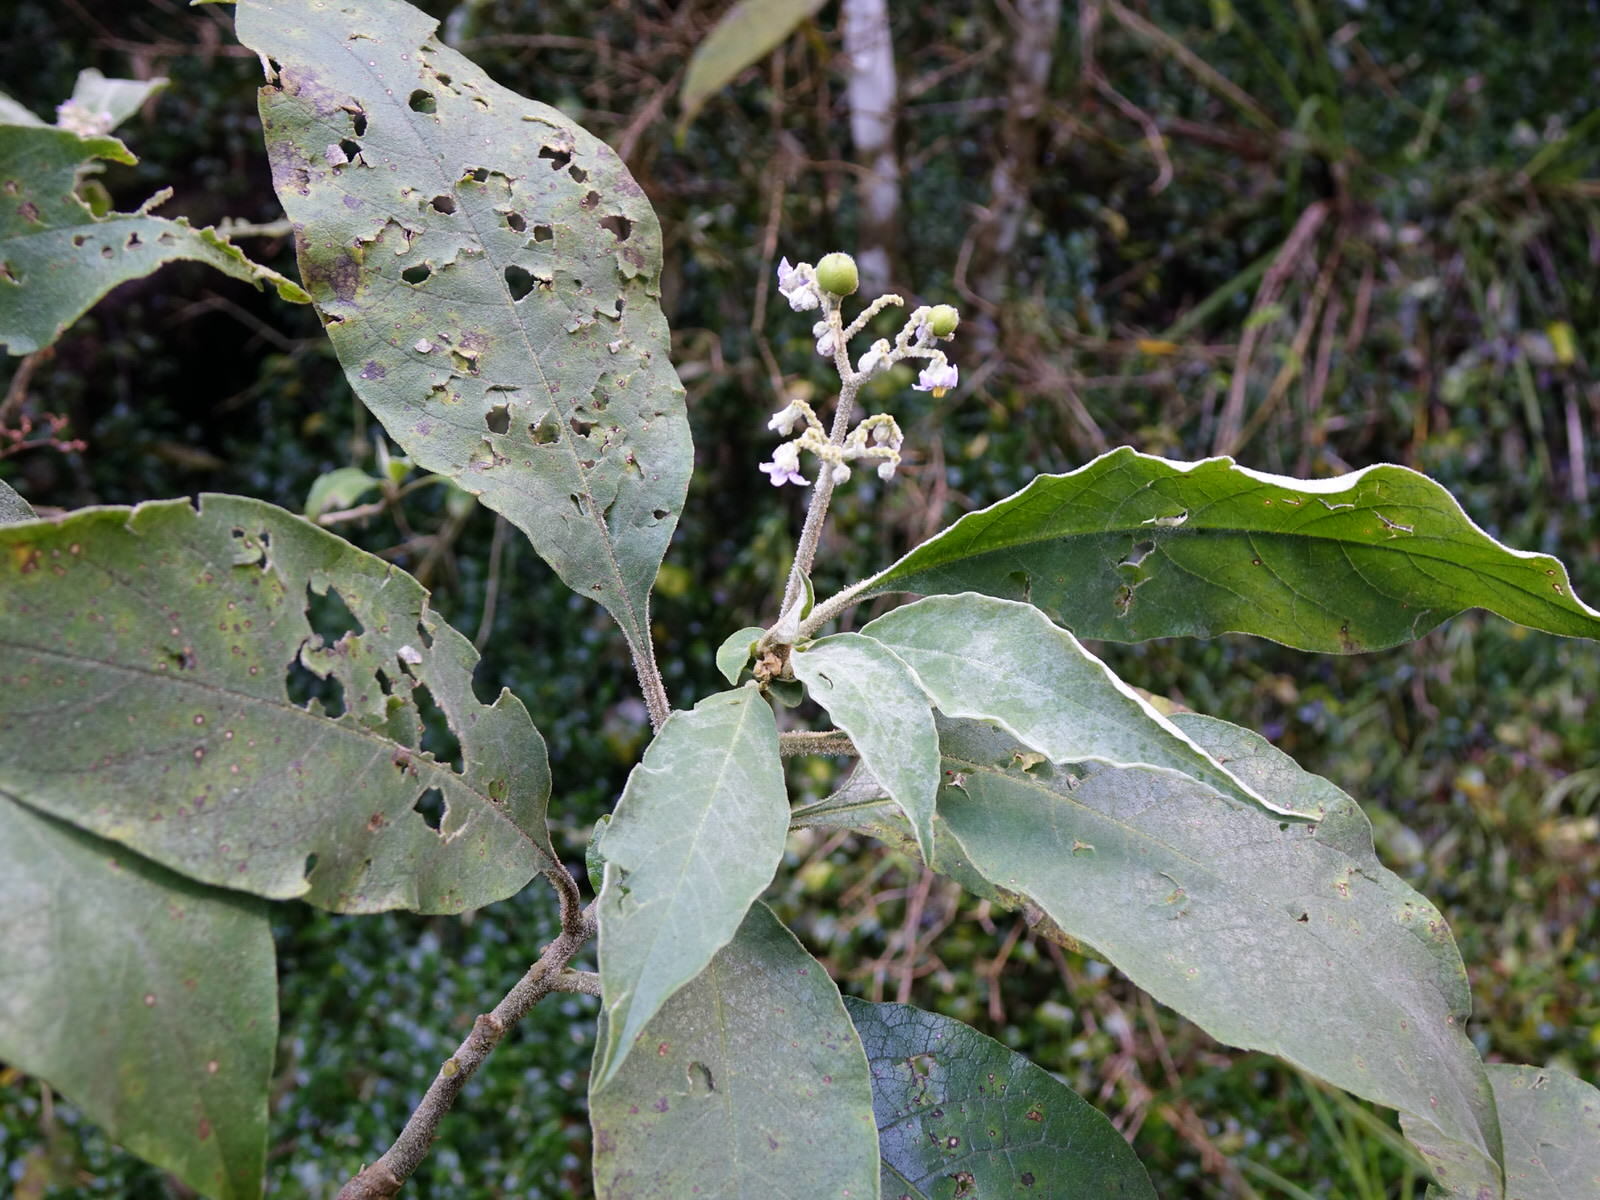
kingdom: Plantae
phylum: Tracheophyta
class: Magnoliopsida
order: Solanales
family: Solanaceae
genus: Solanum
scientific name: Solanum mauritianum
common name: Earleaf nightshade
